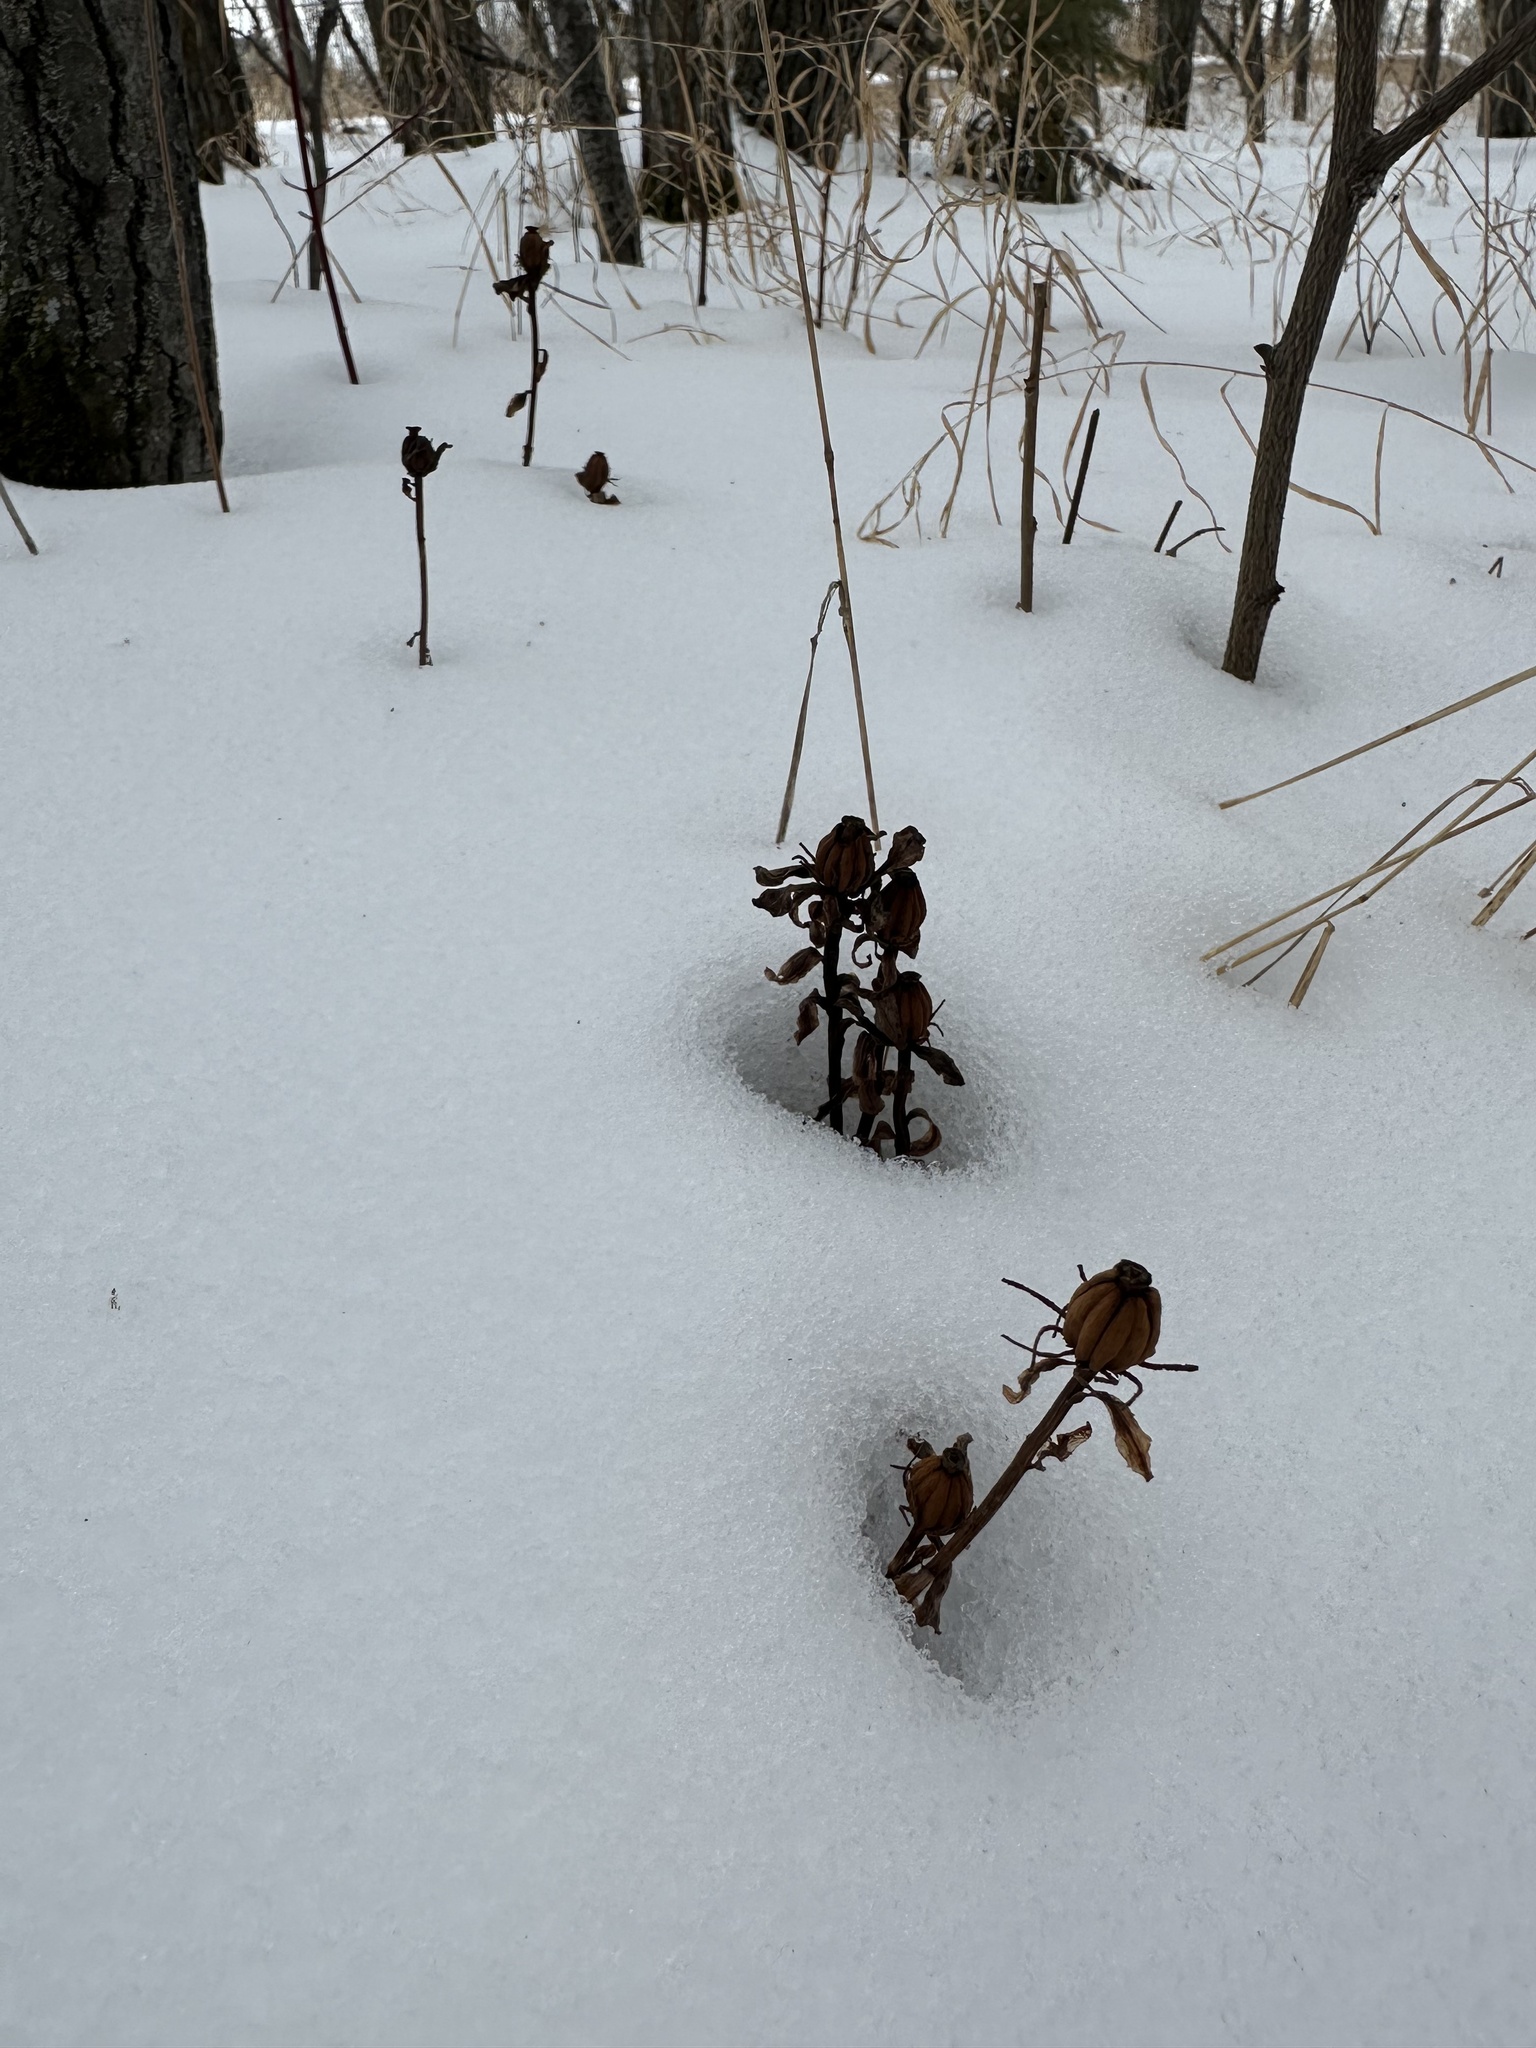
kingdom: Plantae
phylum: Tracheophyta
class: Magnoliopsida
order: Ericales
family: Ericaceae
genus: Monotropa
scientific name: Monotropa uniflora
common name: Convulsion root
